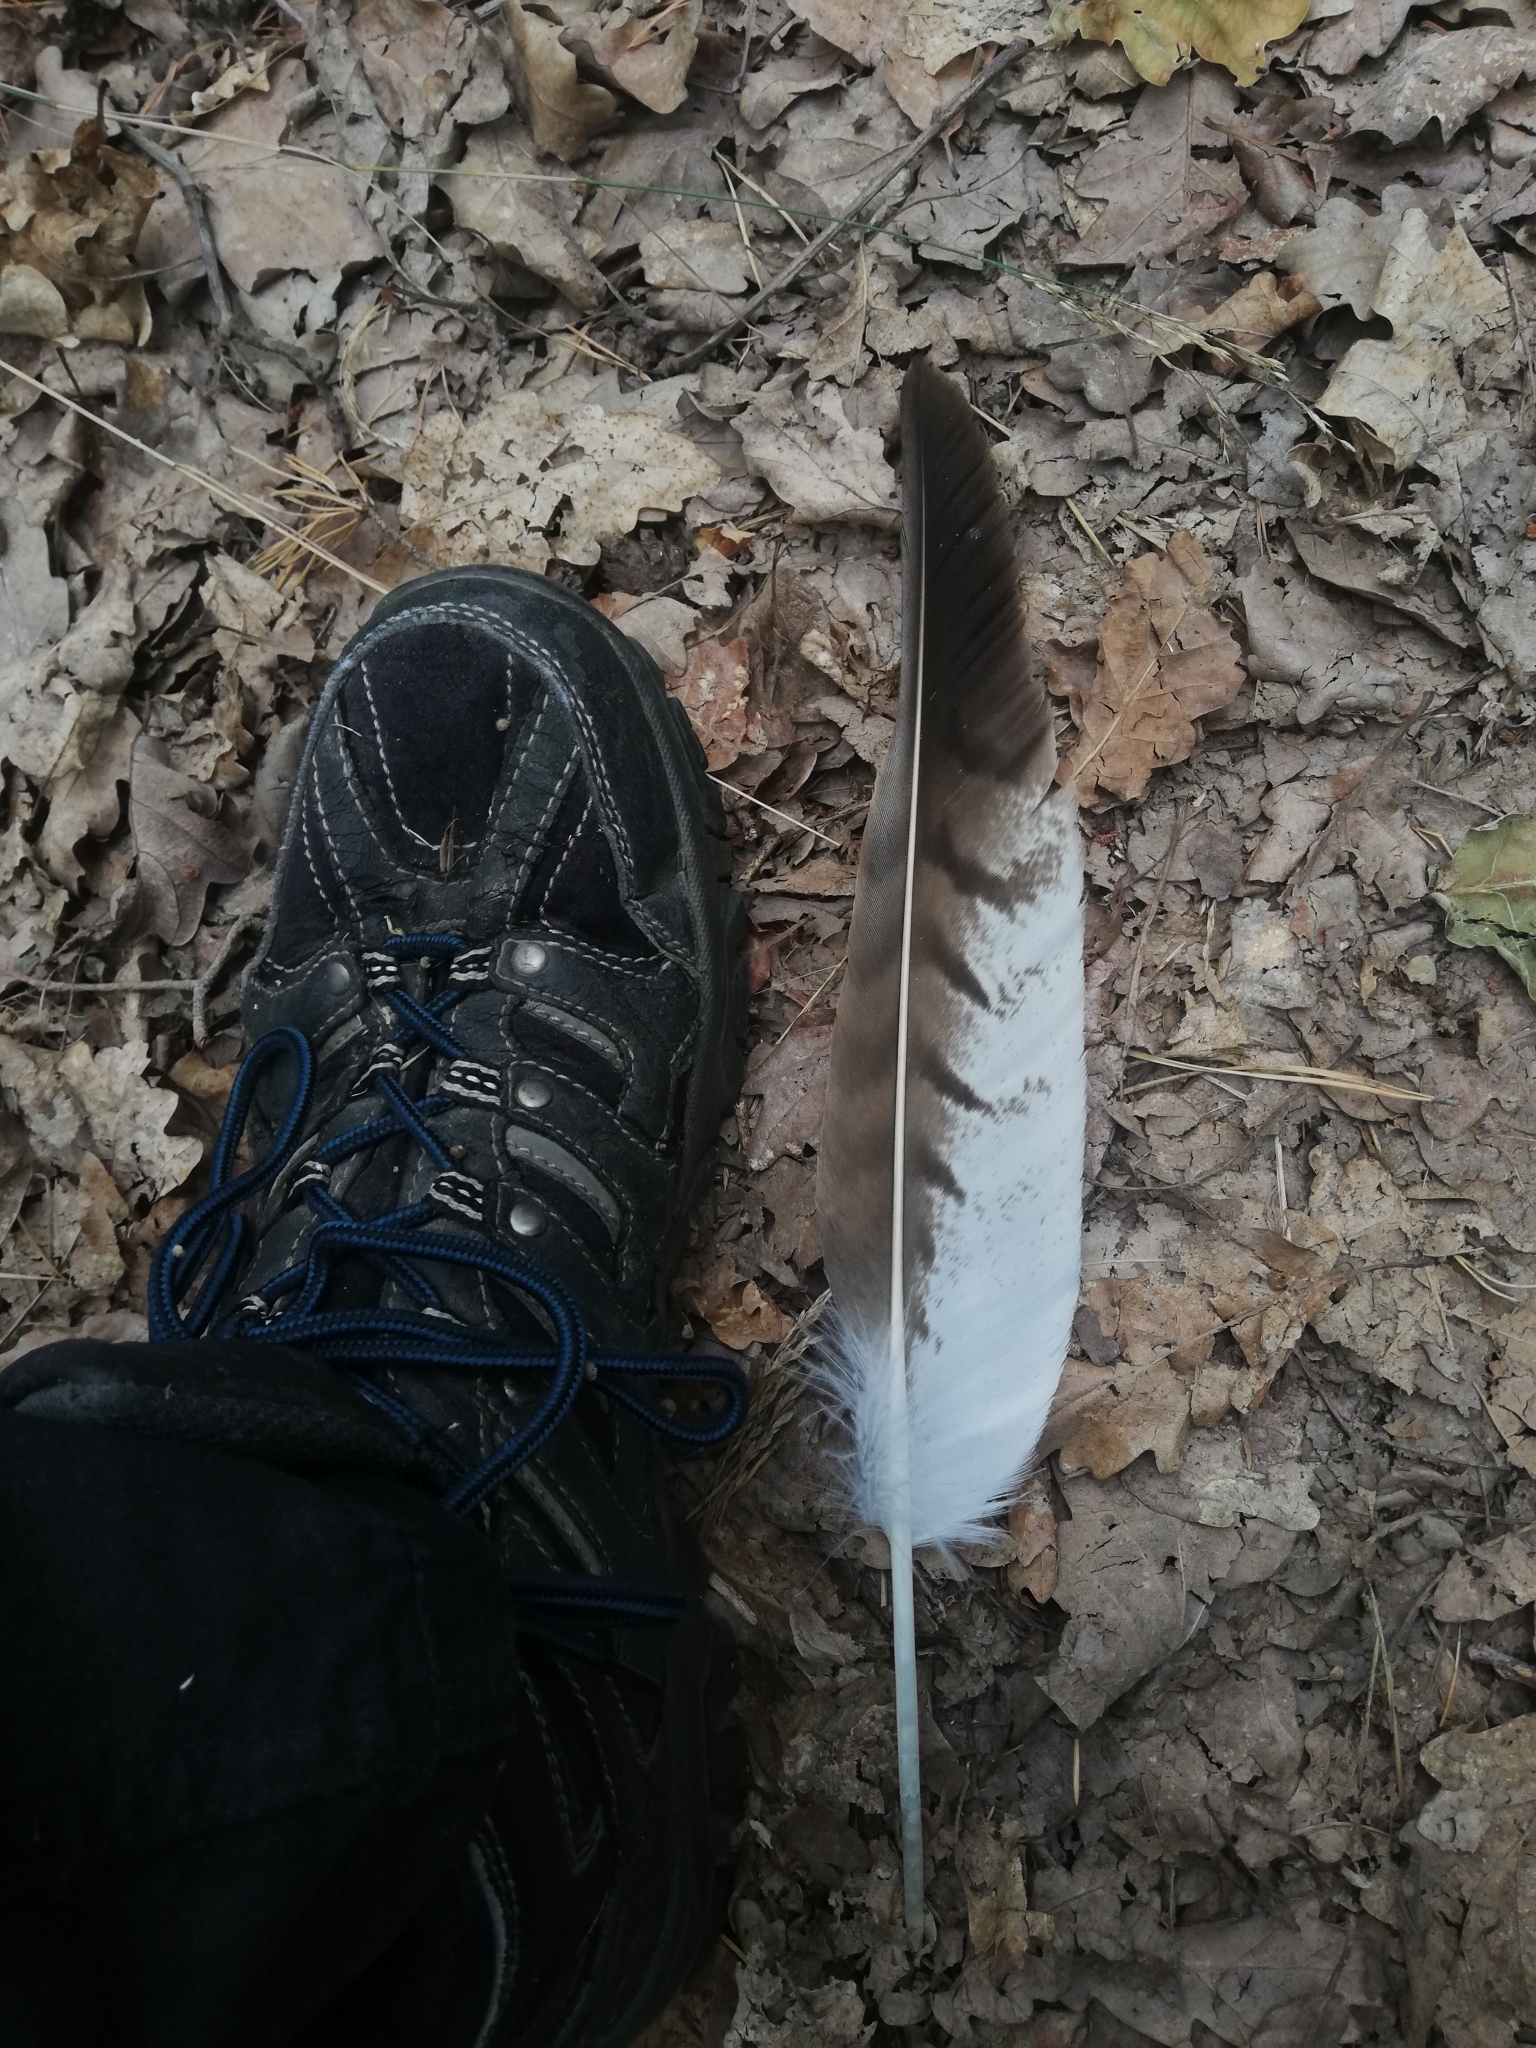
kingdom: Animalia
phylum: Chordata
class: Aves
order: Accipitriformes
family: Accipitridae
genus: Buteo
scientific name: Buteo buteo
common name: Common buzzard
